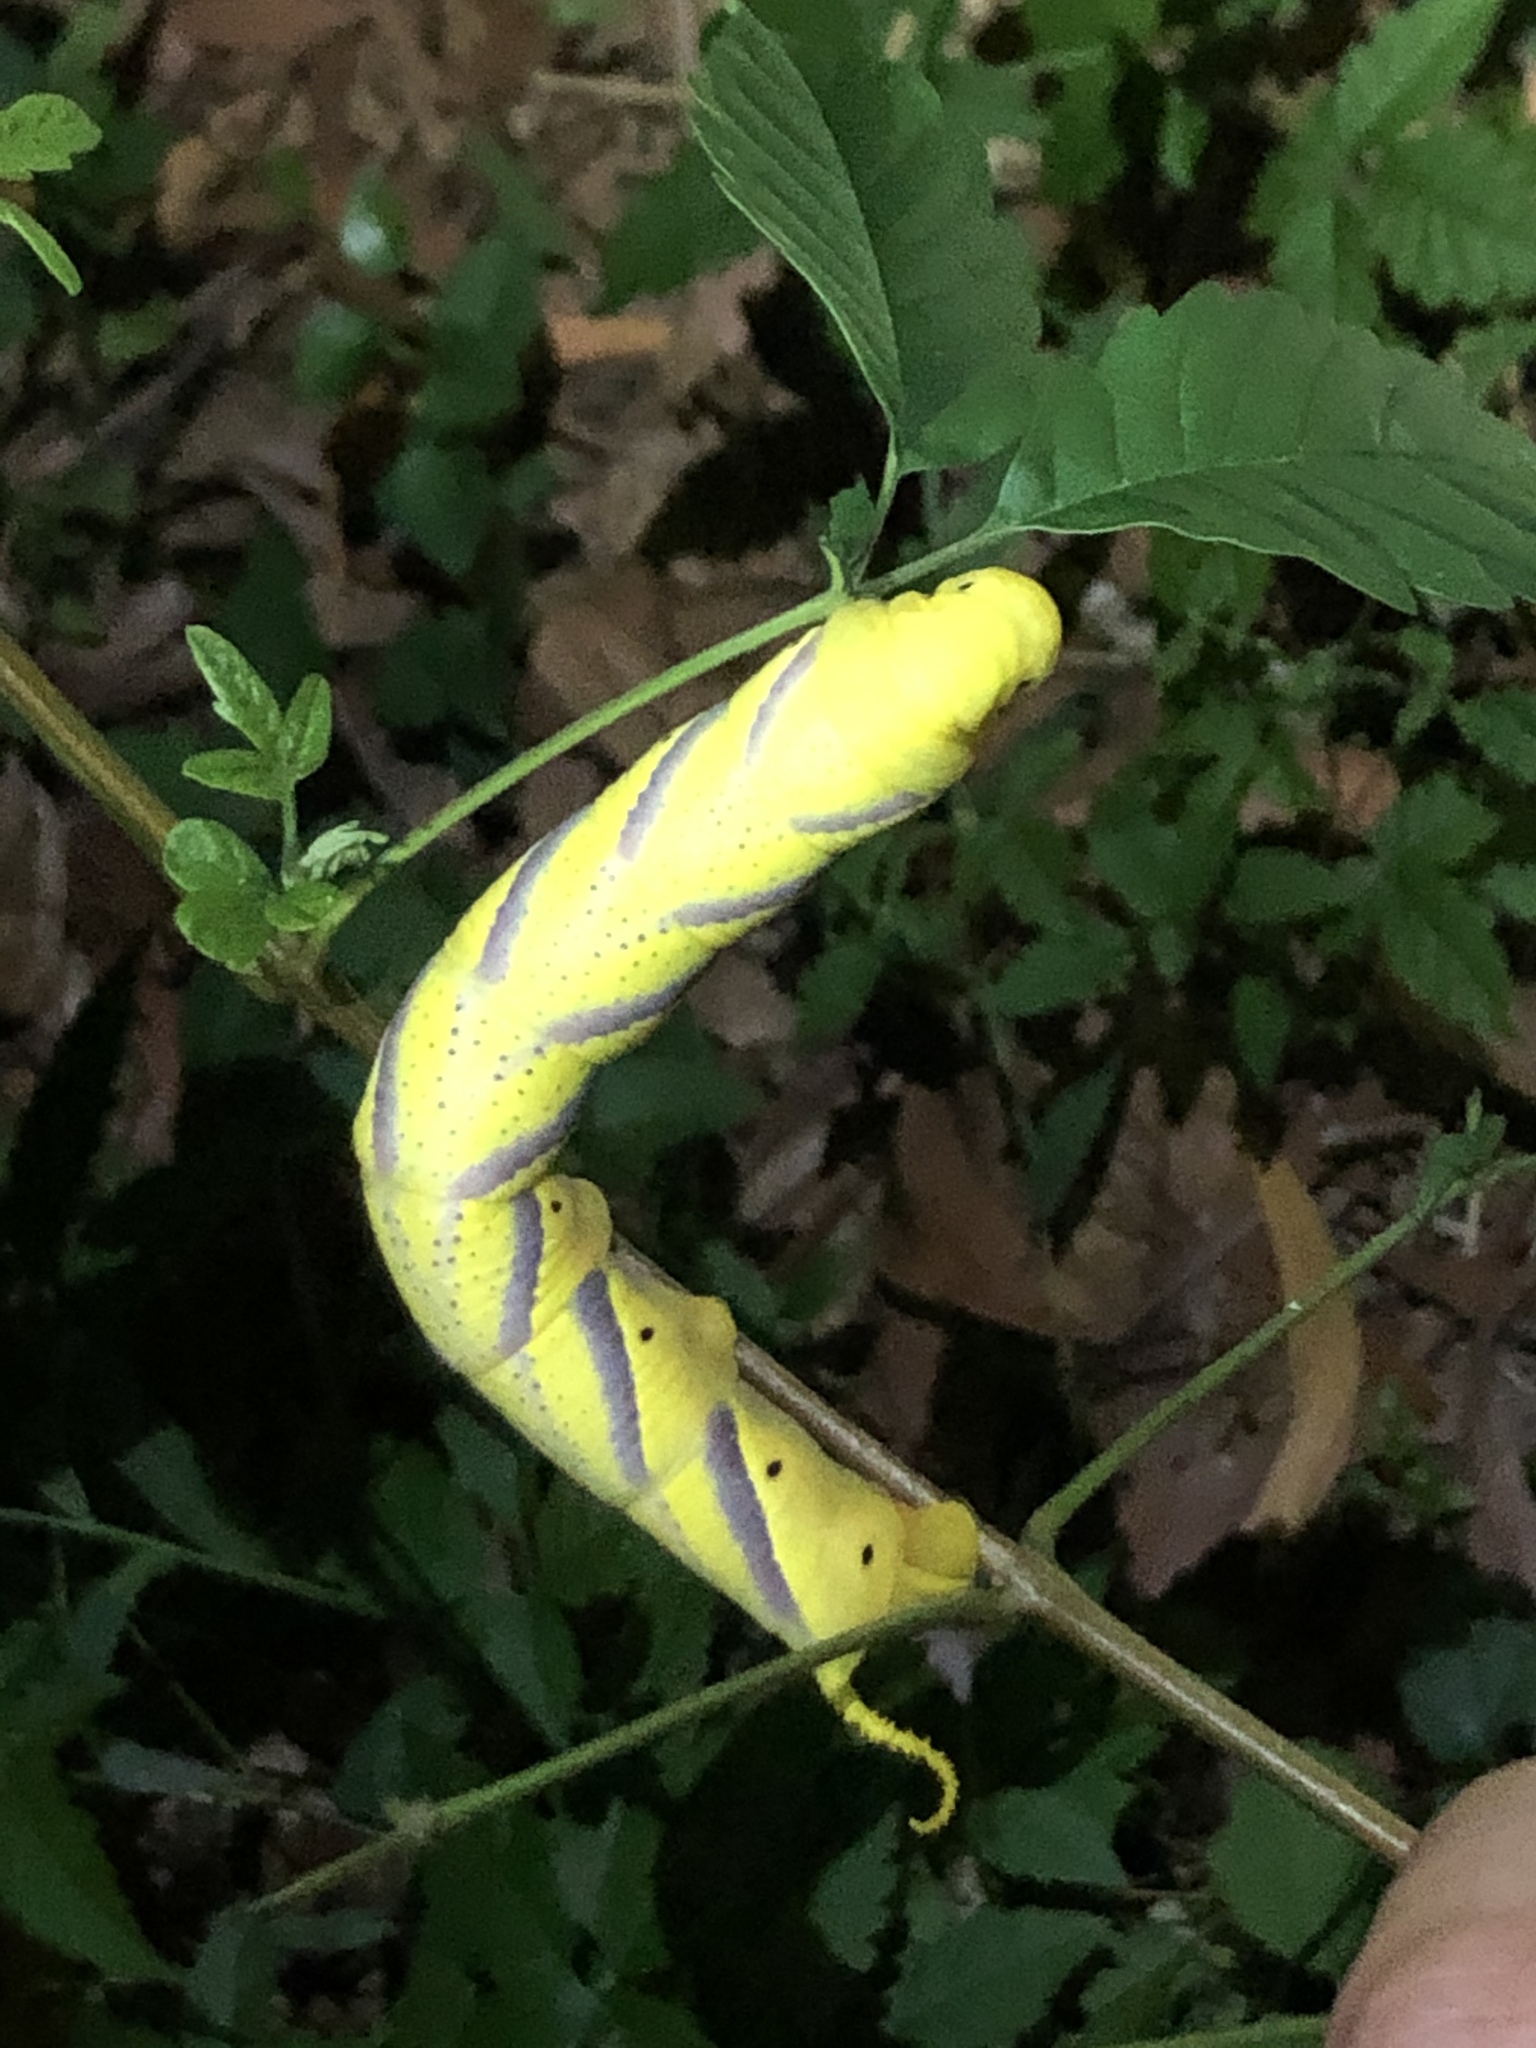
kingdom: Animalia
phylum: Arthropoda
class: Insecta
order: Lepidoptera
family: Sphingidae
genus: Acherontia
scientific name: Acherontia lachesis
